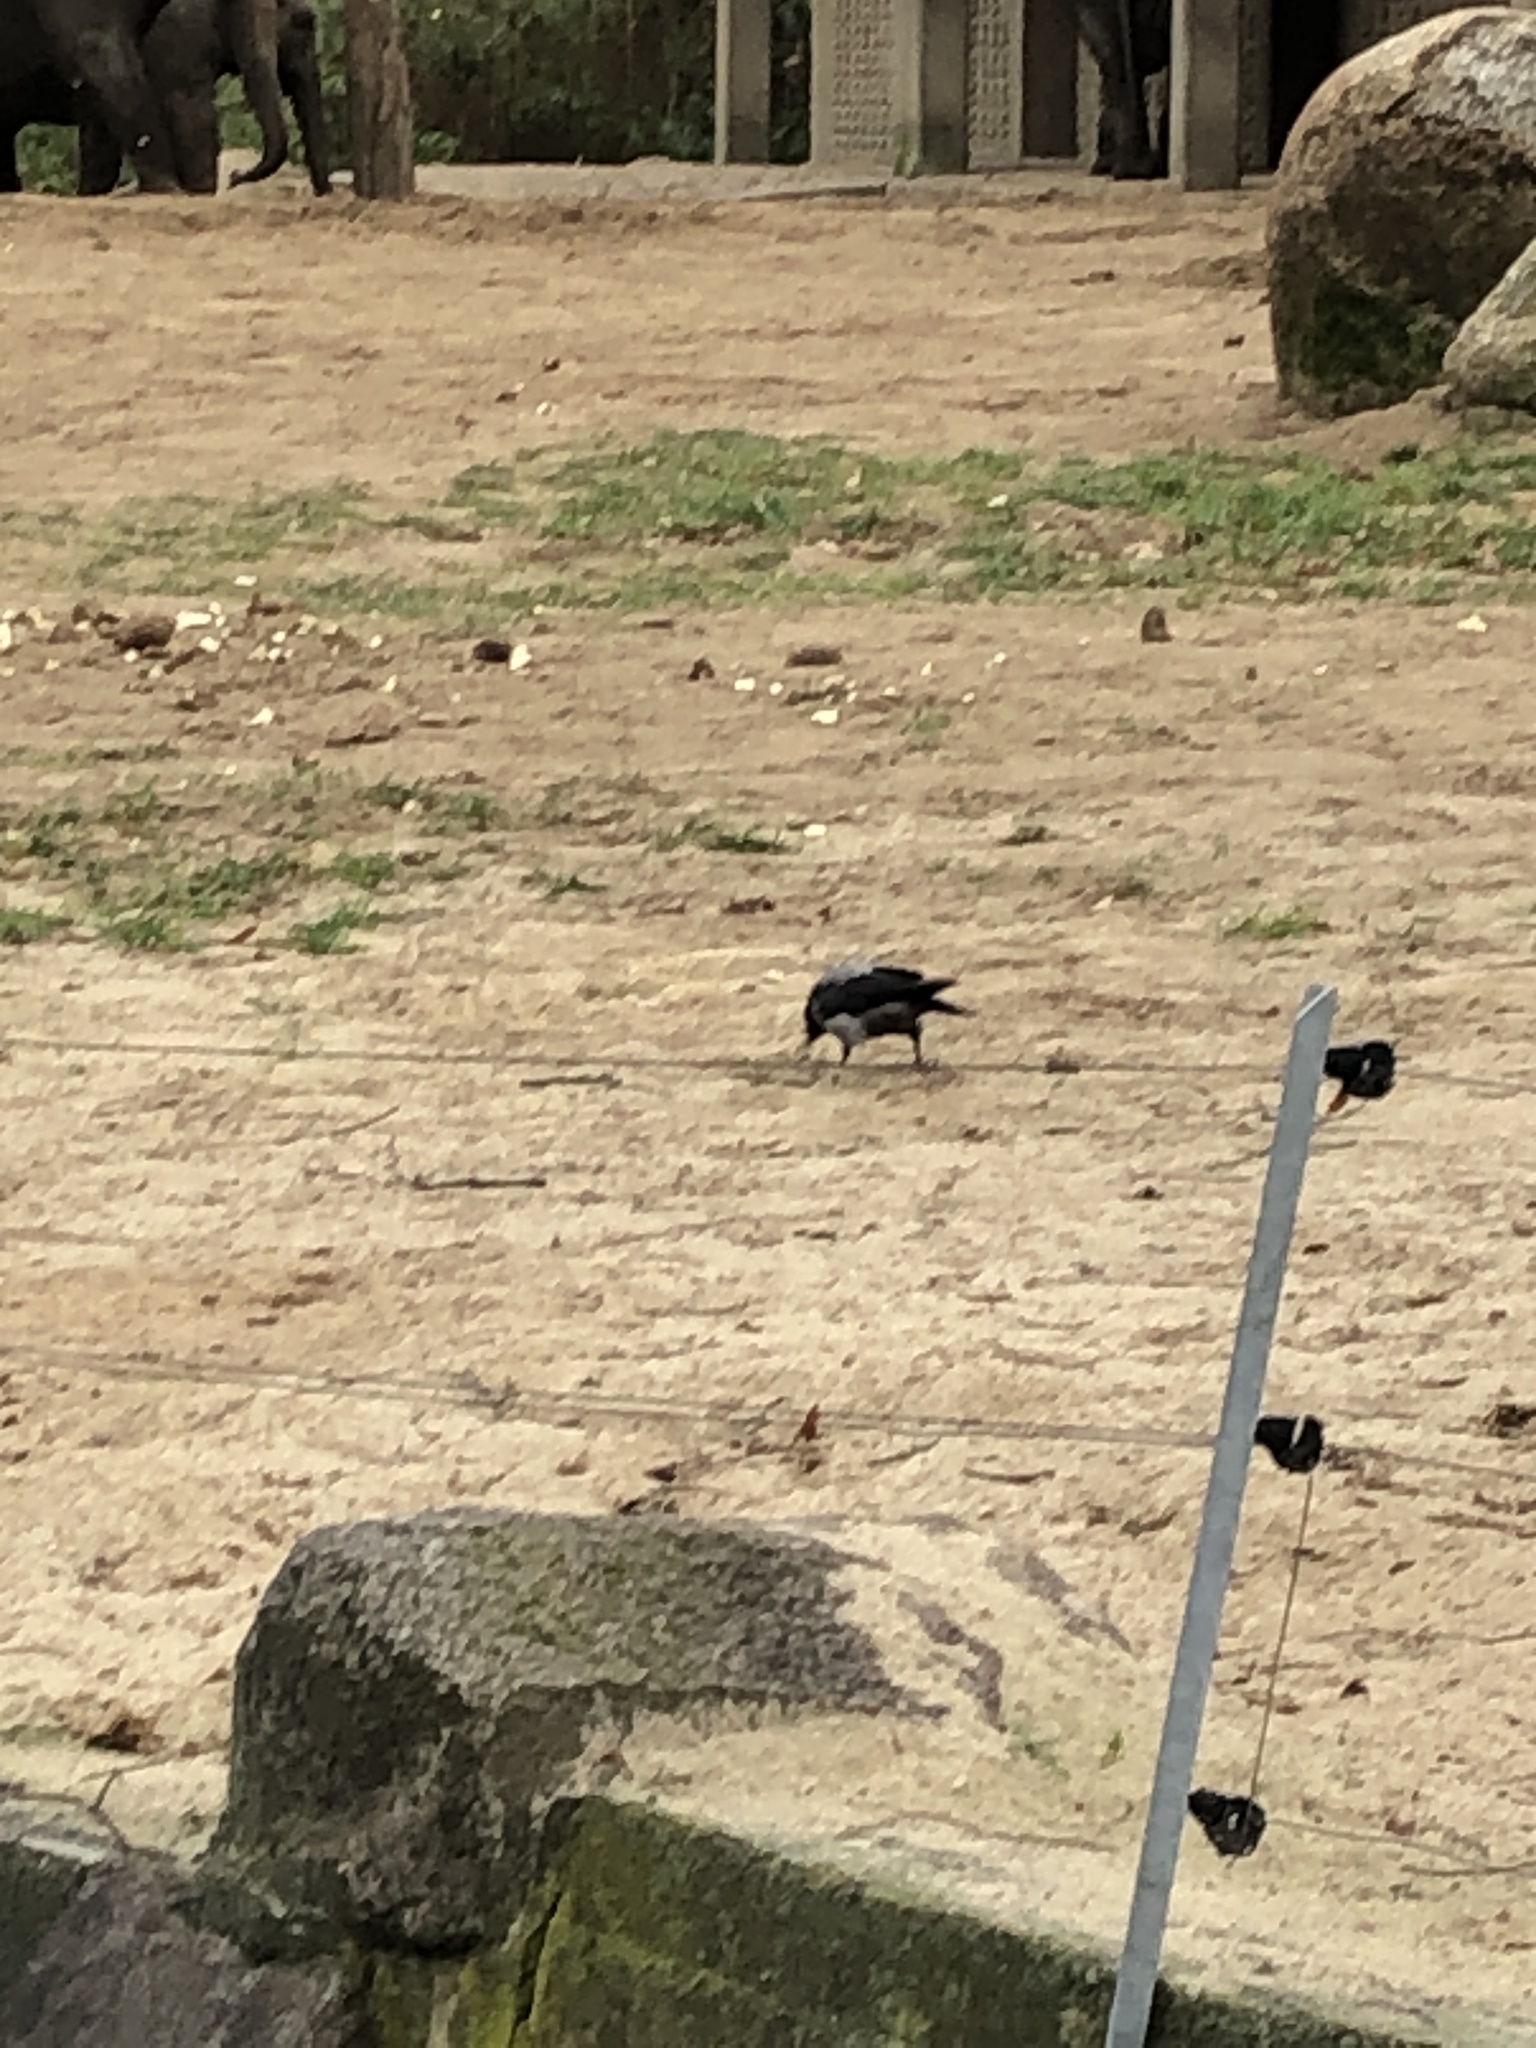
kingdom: Animalia
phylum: Chordata
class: Aves
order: Passeriformes
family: Corvidae
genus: Corvus
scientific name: Corvus cornix
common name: Hooded crow
